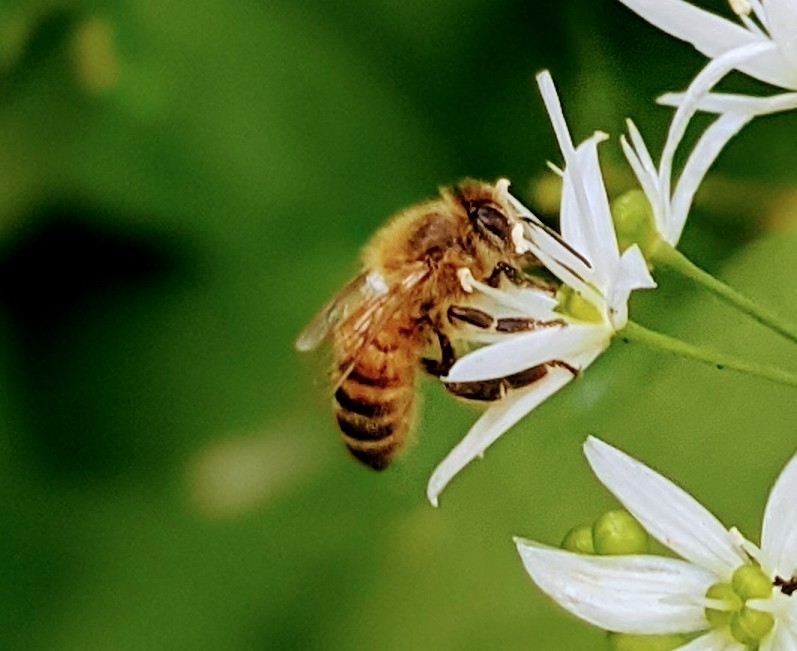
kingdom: Animalia
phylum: Arthropoda
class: Insecta
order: Hymenoptera
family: Apidae
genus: Apis
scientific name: Apis mellifera
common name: Honey bee
